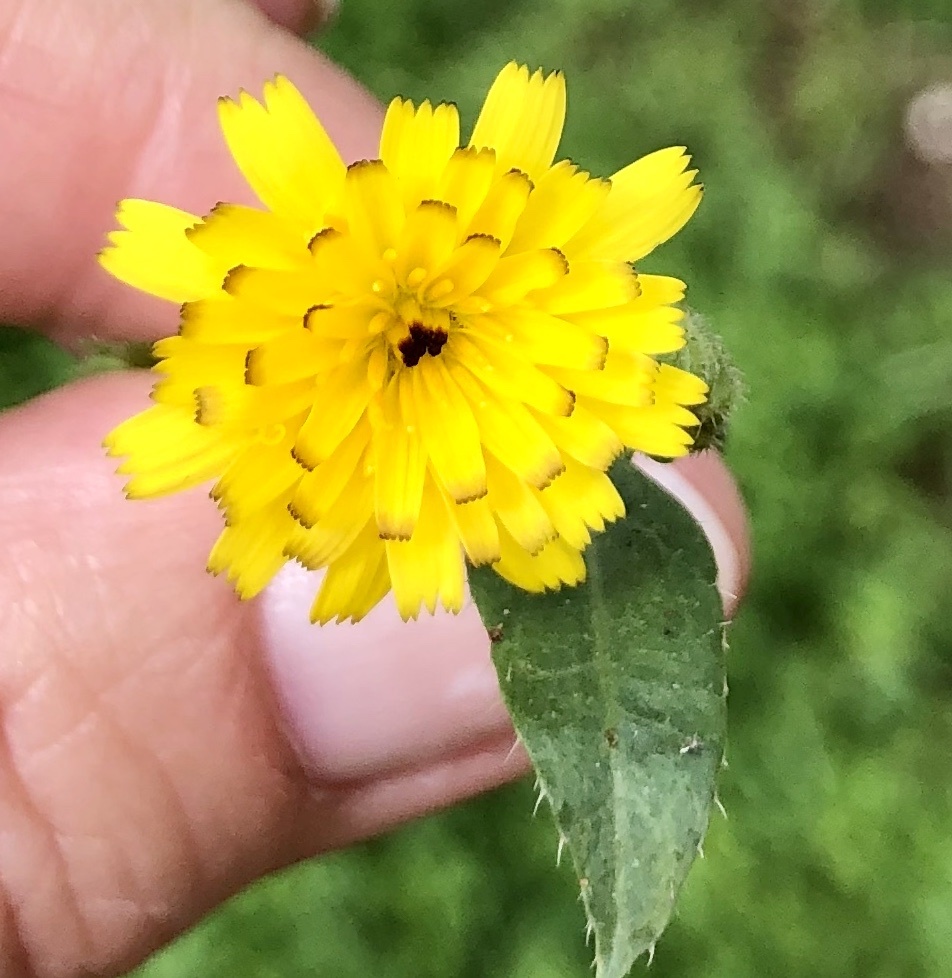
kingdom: Plantae
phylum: Tracheophyta
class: Magnoliopsida
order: Asterales
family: Asteraceae
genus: Hedypnois
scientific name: Hedypnois rhagadioloides
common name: Cretan weed
